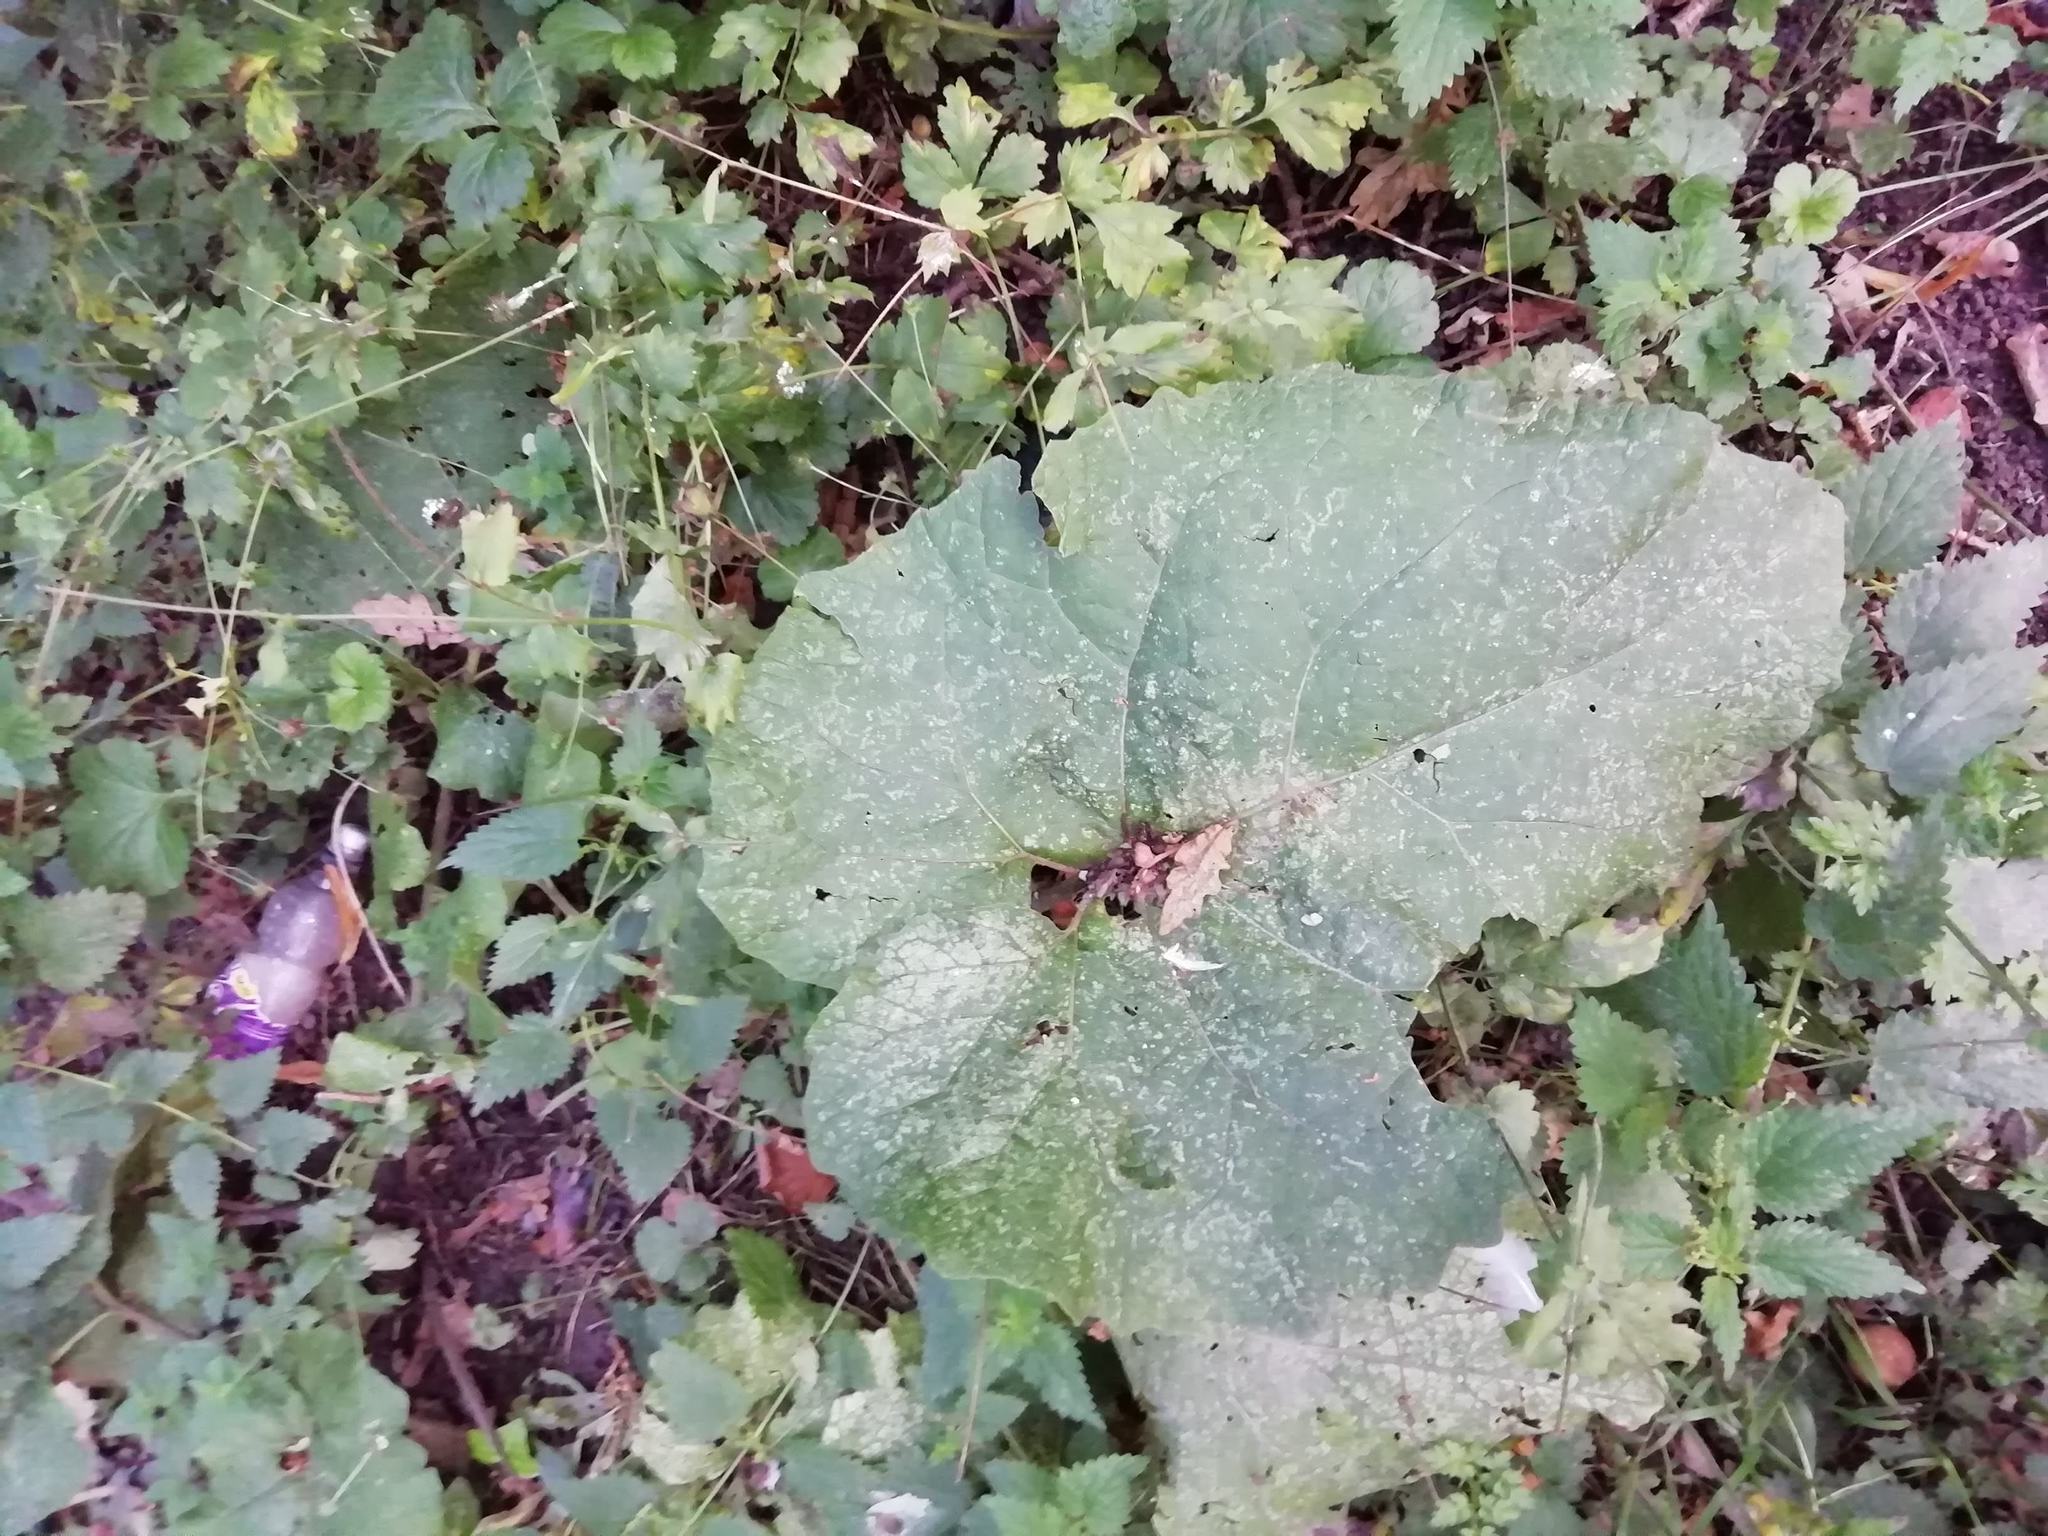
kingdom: Plantae
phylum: Tracheophyta
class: Magnoliopsida
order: Asterales
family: Asteraceae
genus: Arctium
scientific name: Arctium minus
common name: Lesser burdock
